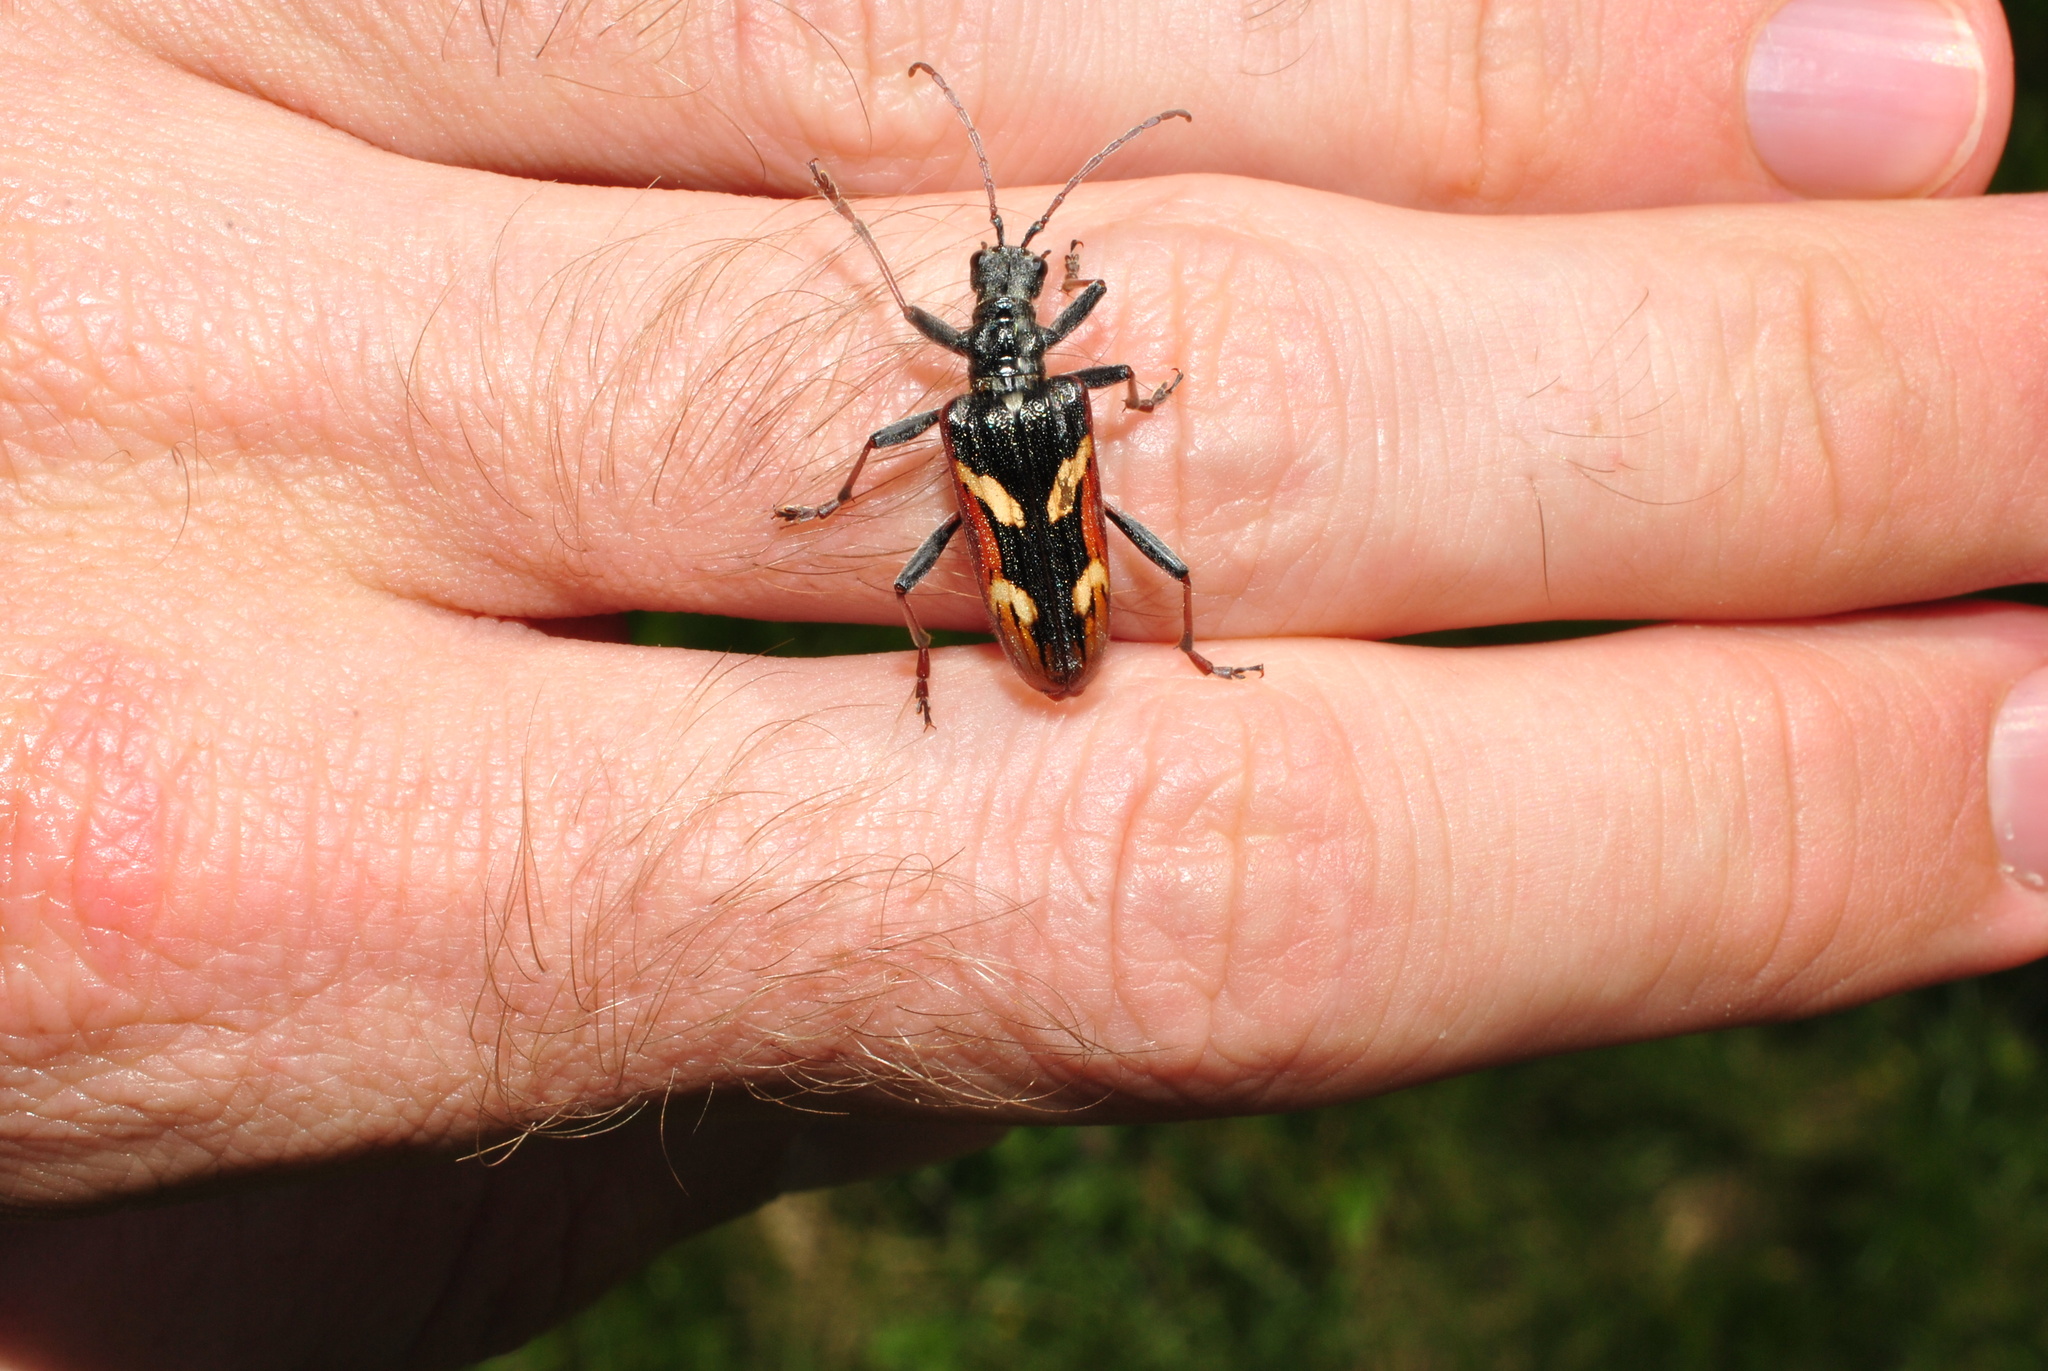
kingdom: Animalia
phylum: Arthropoda
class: Insecta
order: Coleoptera
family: Cerambycidae
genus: Rhagium
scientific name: Rhagium bifasciatum
